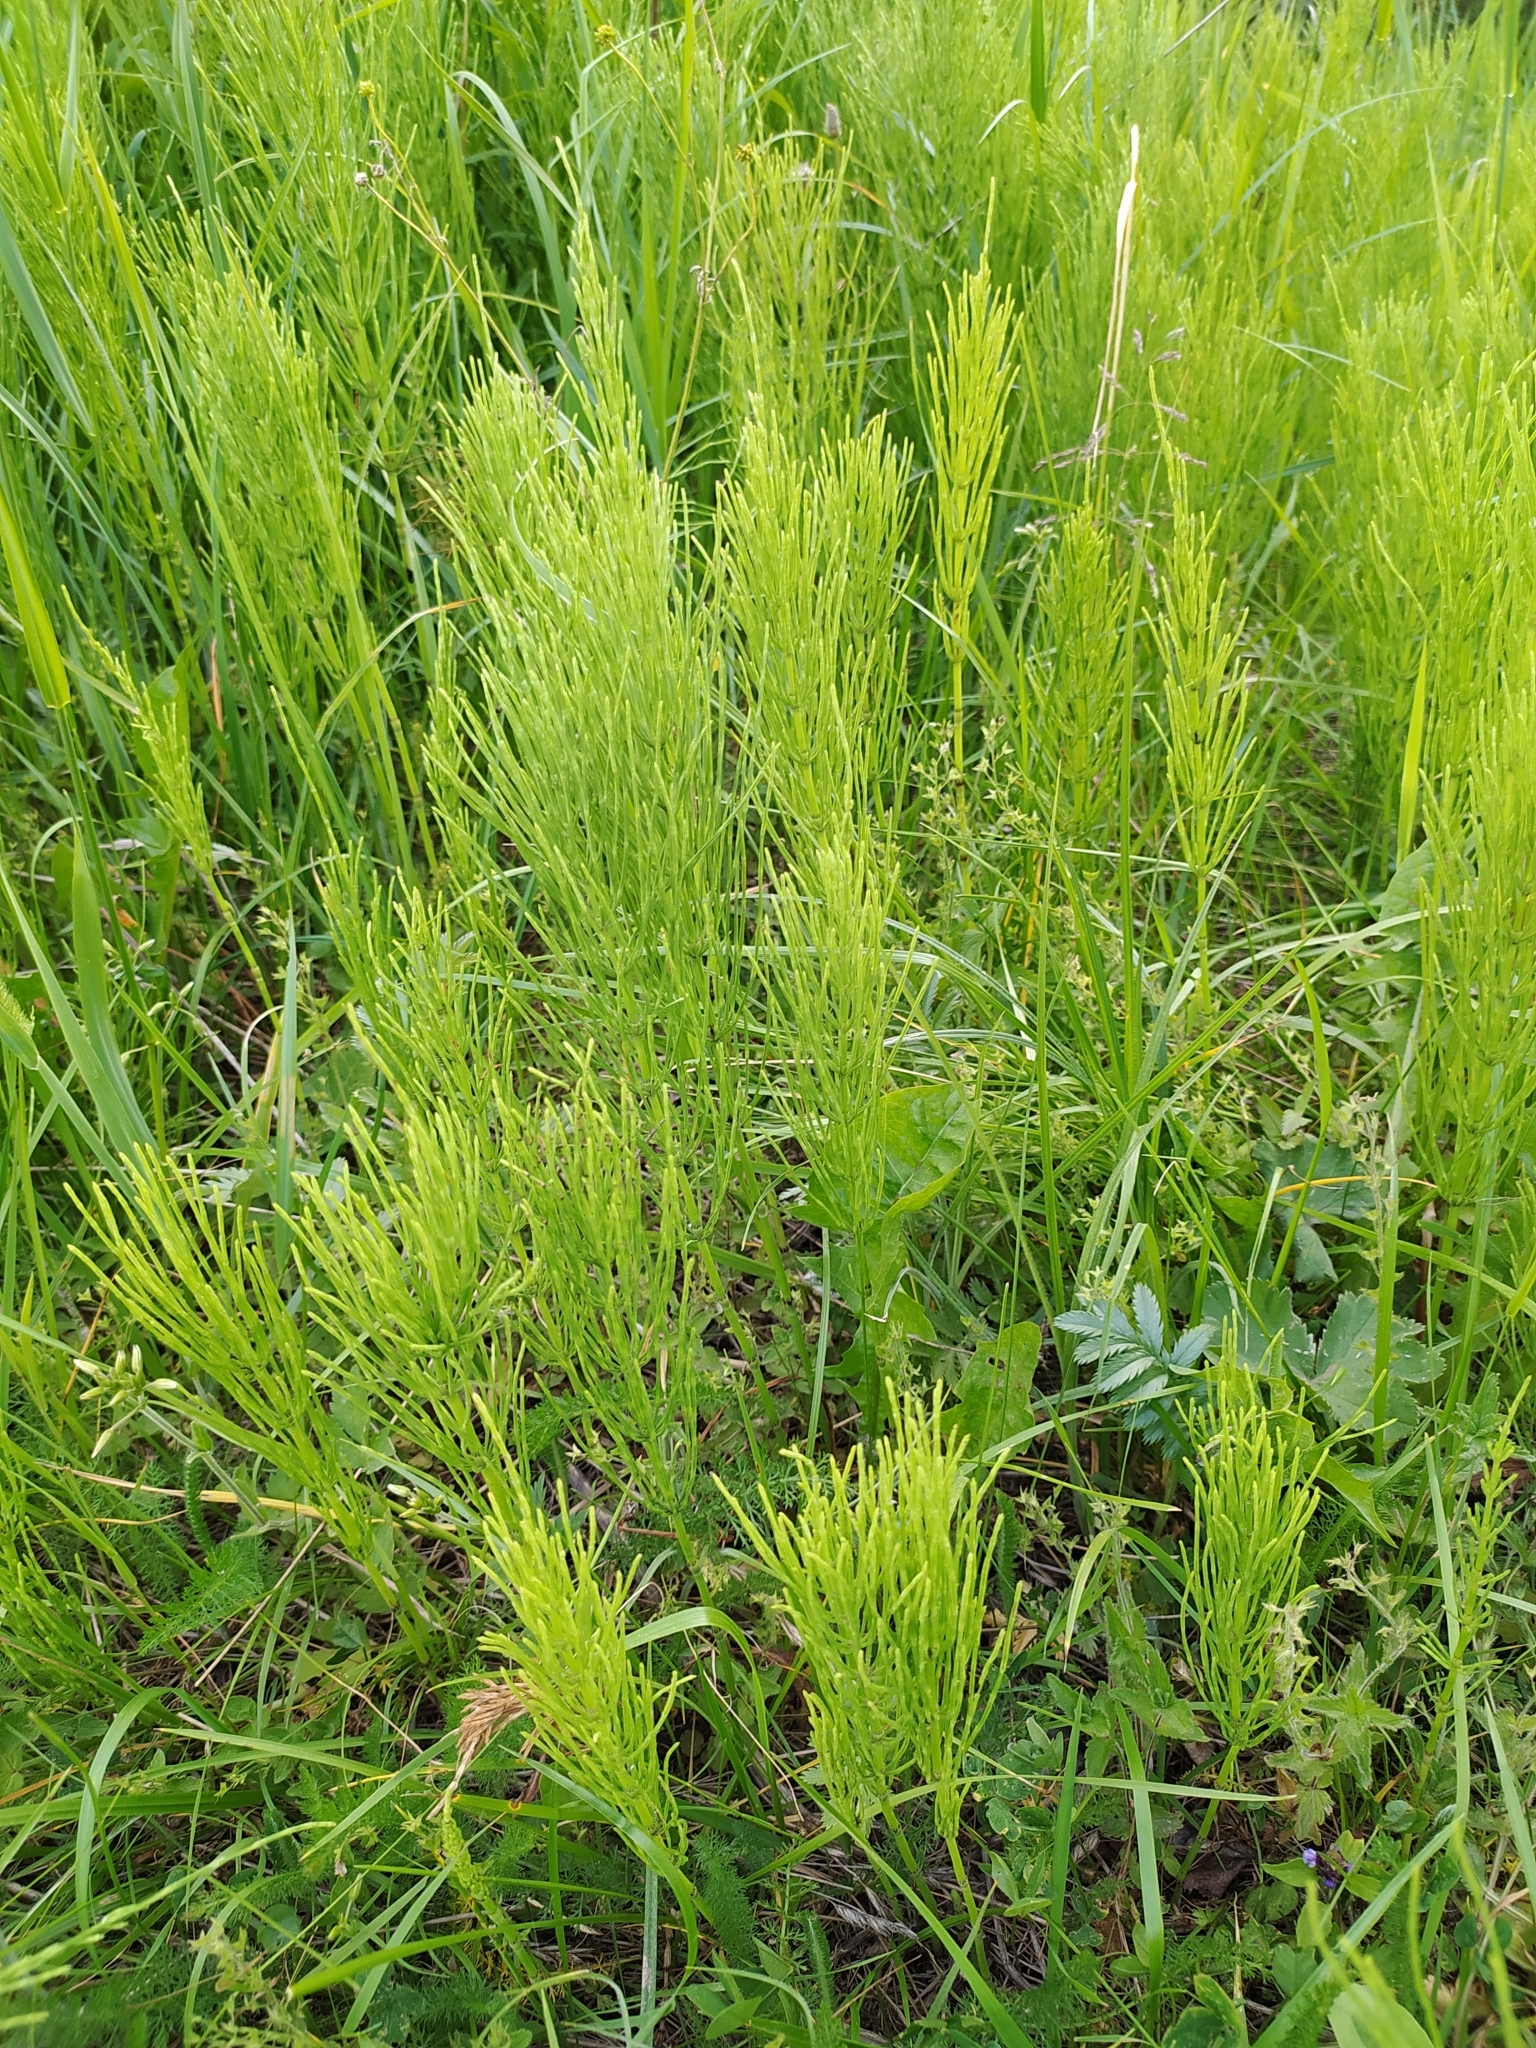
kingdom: Plantae
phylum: Tracheophyta
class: Polypodiopsida
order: Equisetales
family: Equisetaceae
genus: Equisetum
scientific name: Equisetum arvense
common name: Field horsetail
